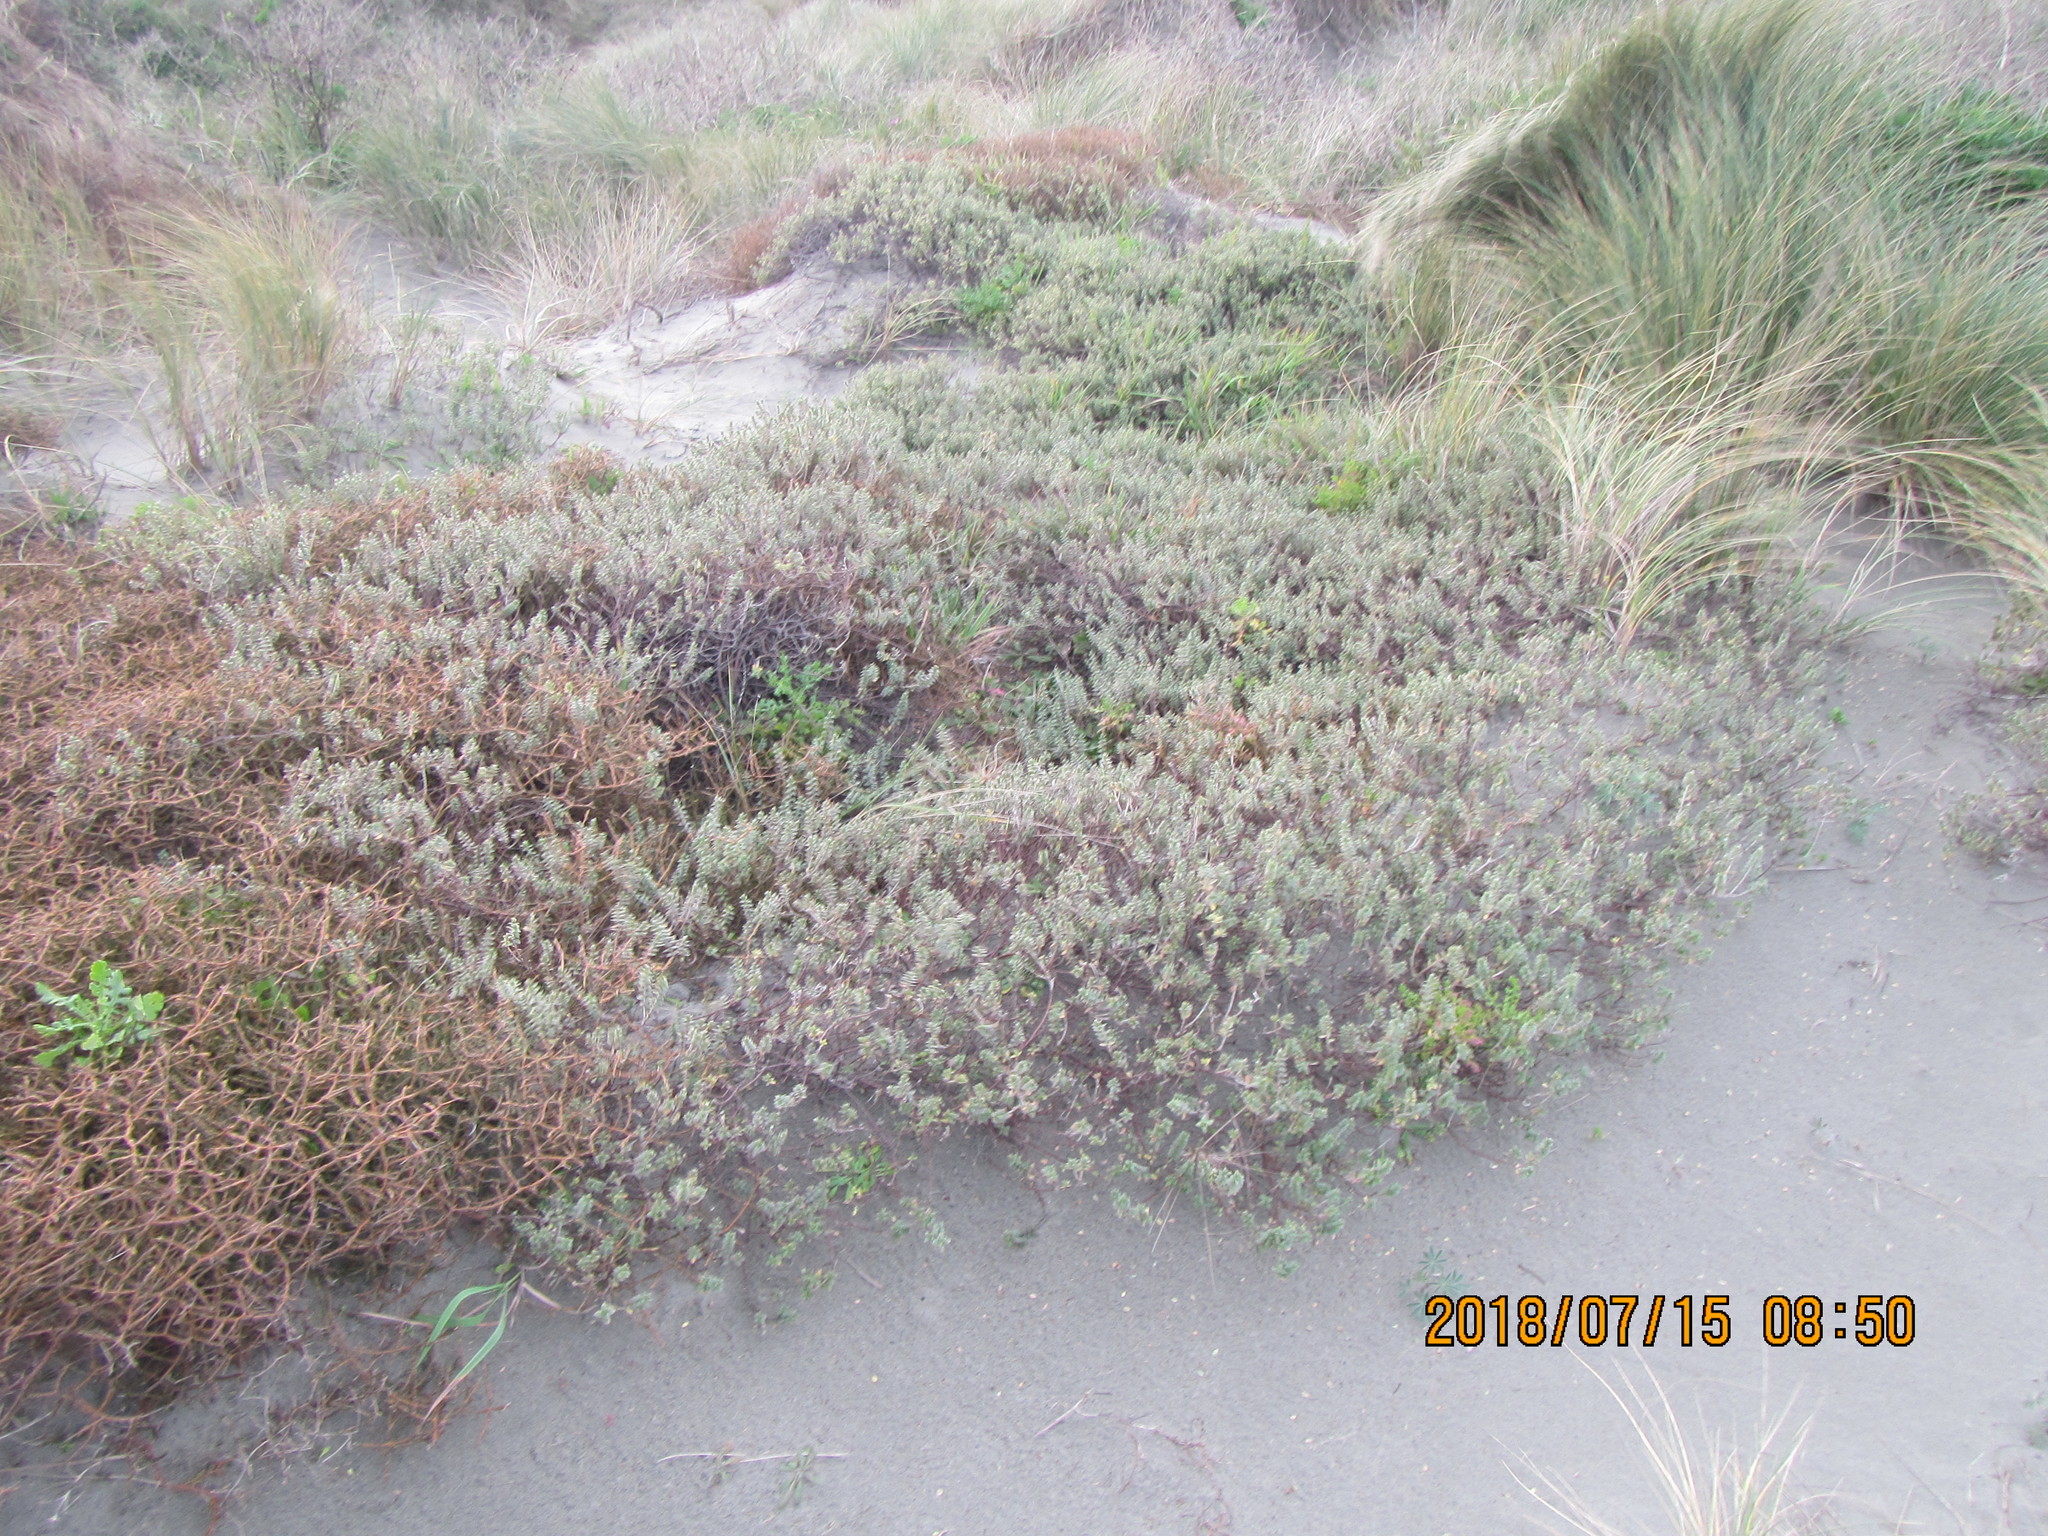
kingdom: Plantae
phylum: Tracheophyta
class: Magnoliopsida
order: Malvales
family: Thymelaeaceae
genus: Pimelea
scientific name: Pimelea villosa
